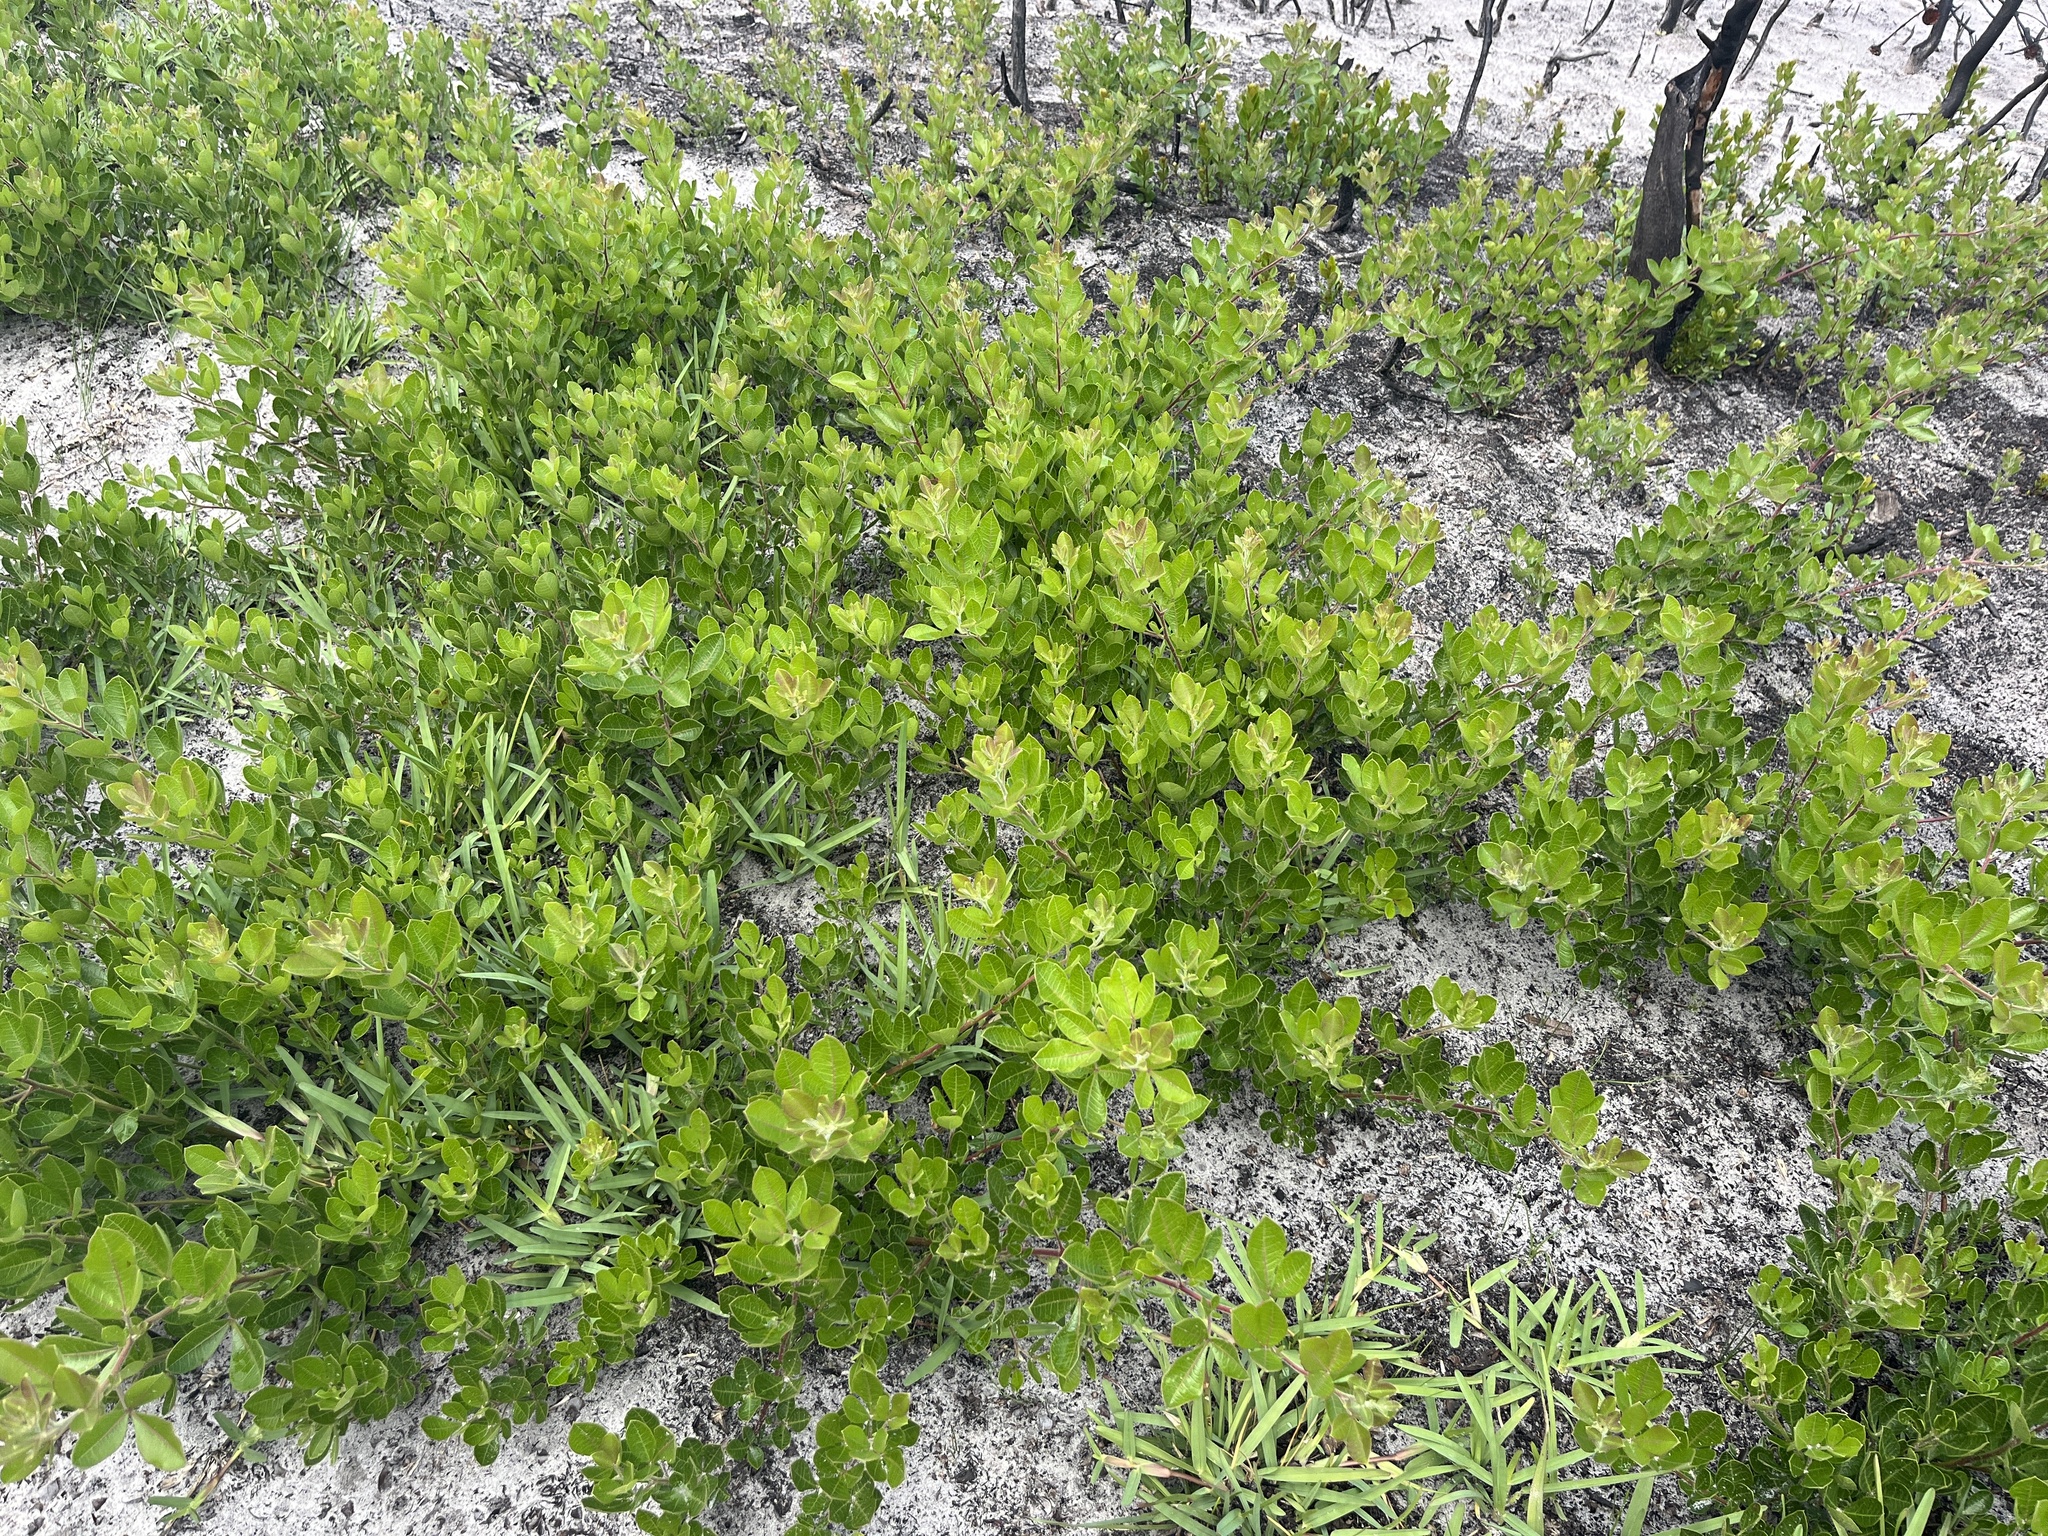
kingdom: Plantae
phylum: Tracheophyta
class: Magnoliopsida
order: Sapindales
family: Anacardiaceae
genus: Searsia
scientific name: Searsia laevigata
